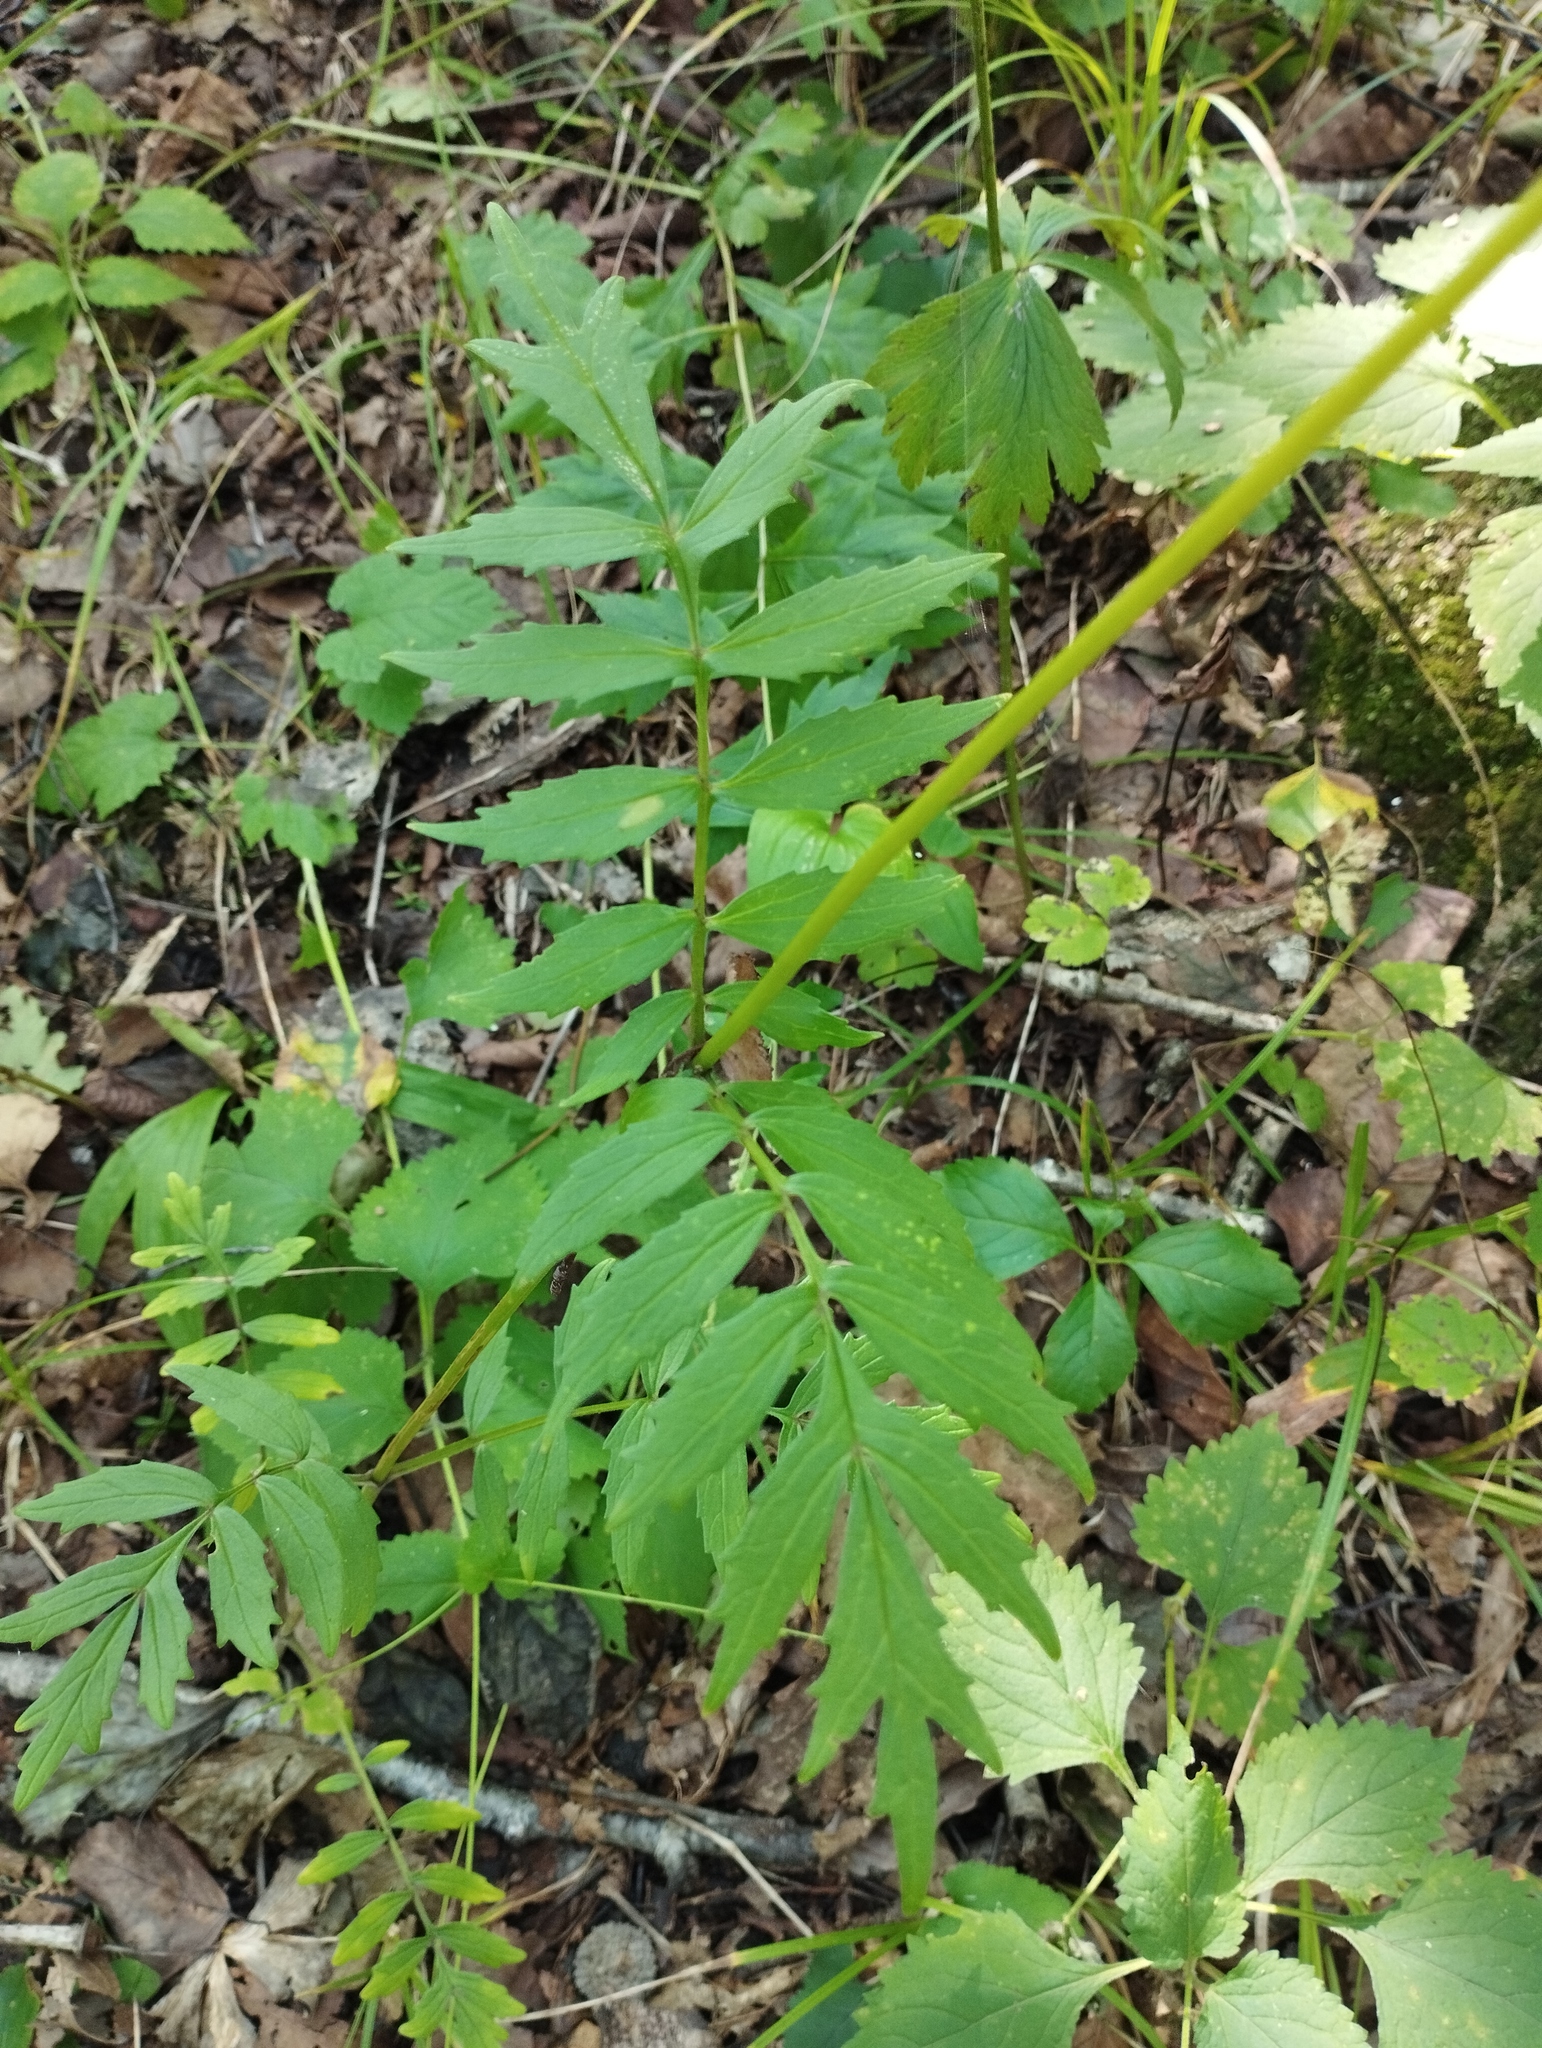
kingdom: Plantae
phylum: Tracheophyta
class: Magnoliopsida
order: Dipsacales
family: Caprifoliaceae
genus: Valeriana
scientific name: Valeriana fauriei
